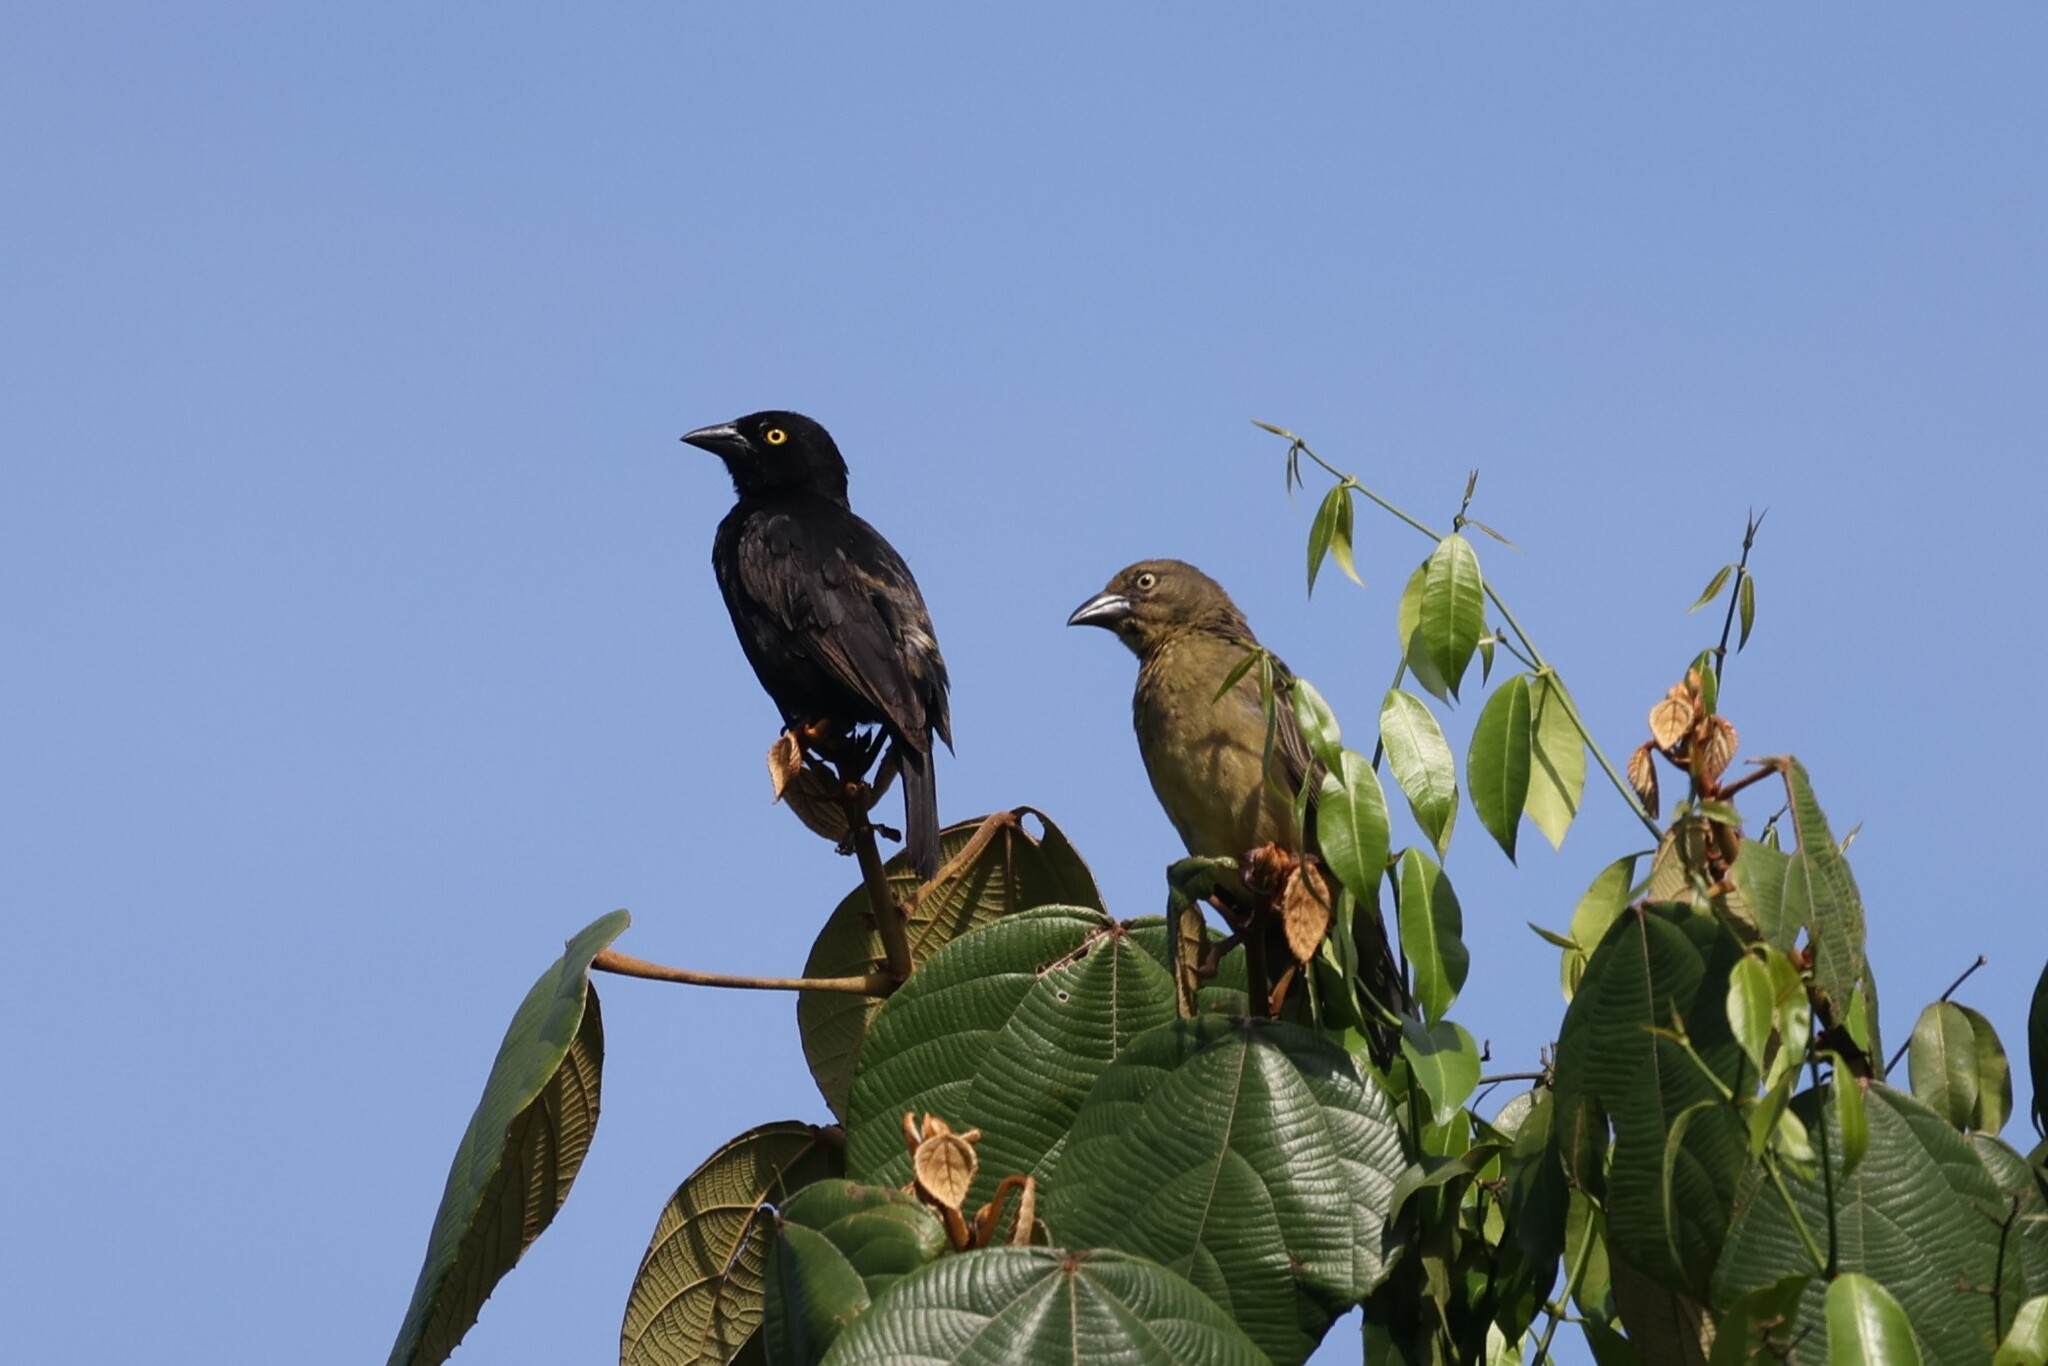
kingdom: Animalia
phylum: Chordata
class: Aves
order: Passeriformes
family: Ploceidae
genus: Ploceus
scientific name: Ploceus nigerrimus
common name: Vieillot's black weaver
